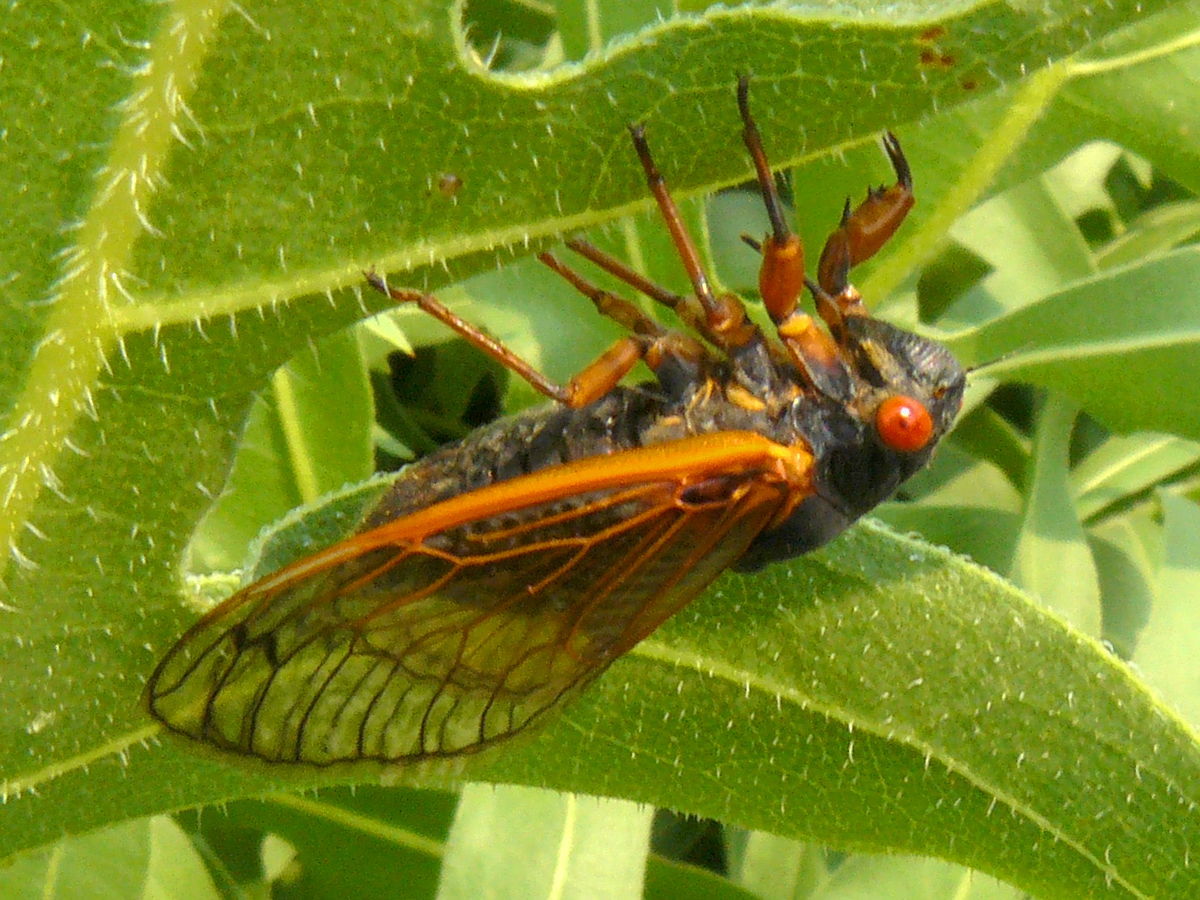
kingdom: Animalia
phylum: Arthropoda
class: Insecta
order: Hemiptera
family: Cicadidae
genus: Magicicada
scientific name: Magicicada cassini
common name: Cassin's 17-year cicada
